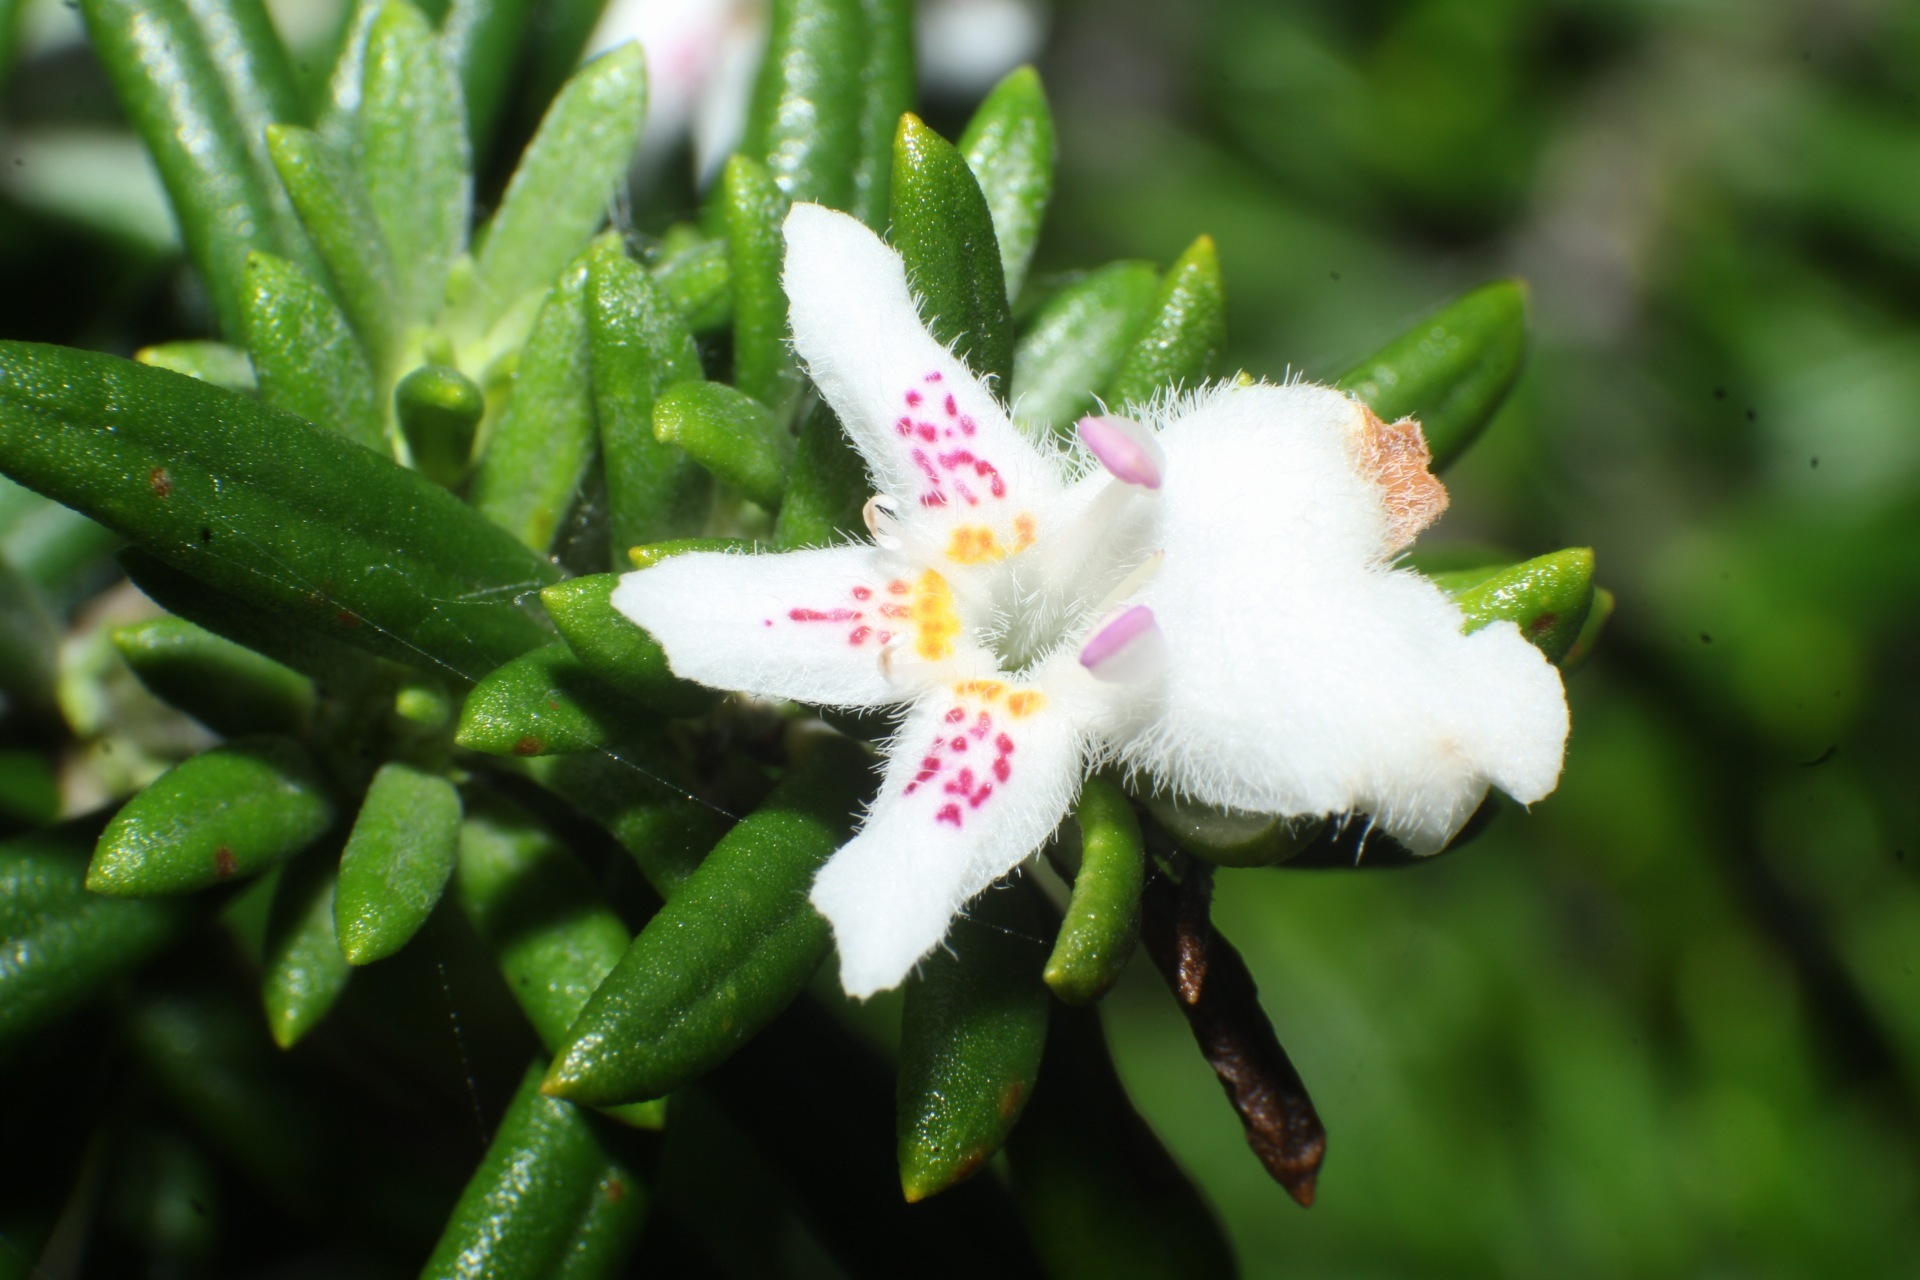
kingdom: Plantae
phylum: Tracheophyta
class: Magnoliopsida
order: Lamiales
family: Lamiaceae
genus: Westringia
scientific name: Westringia dampieri
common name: Shore westringia
